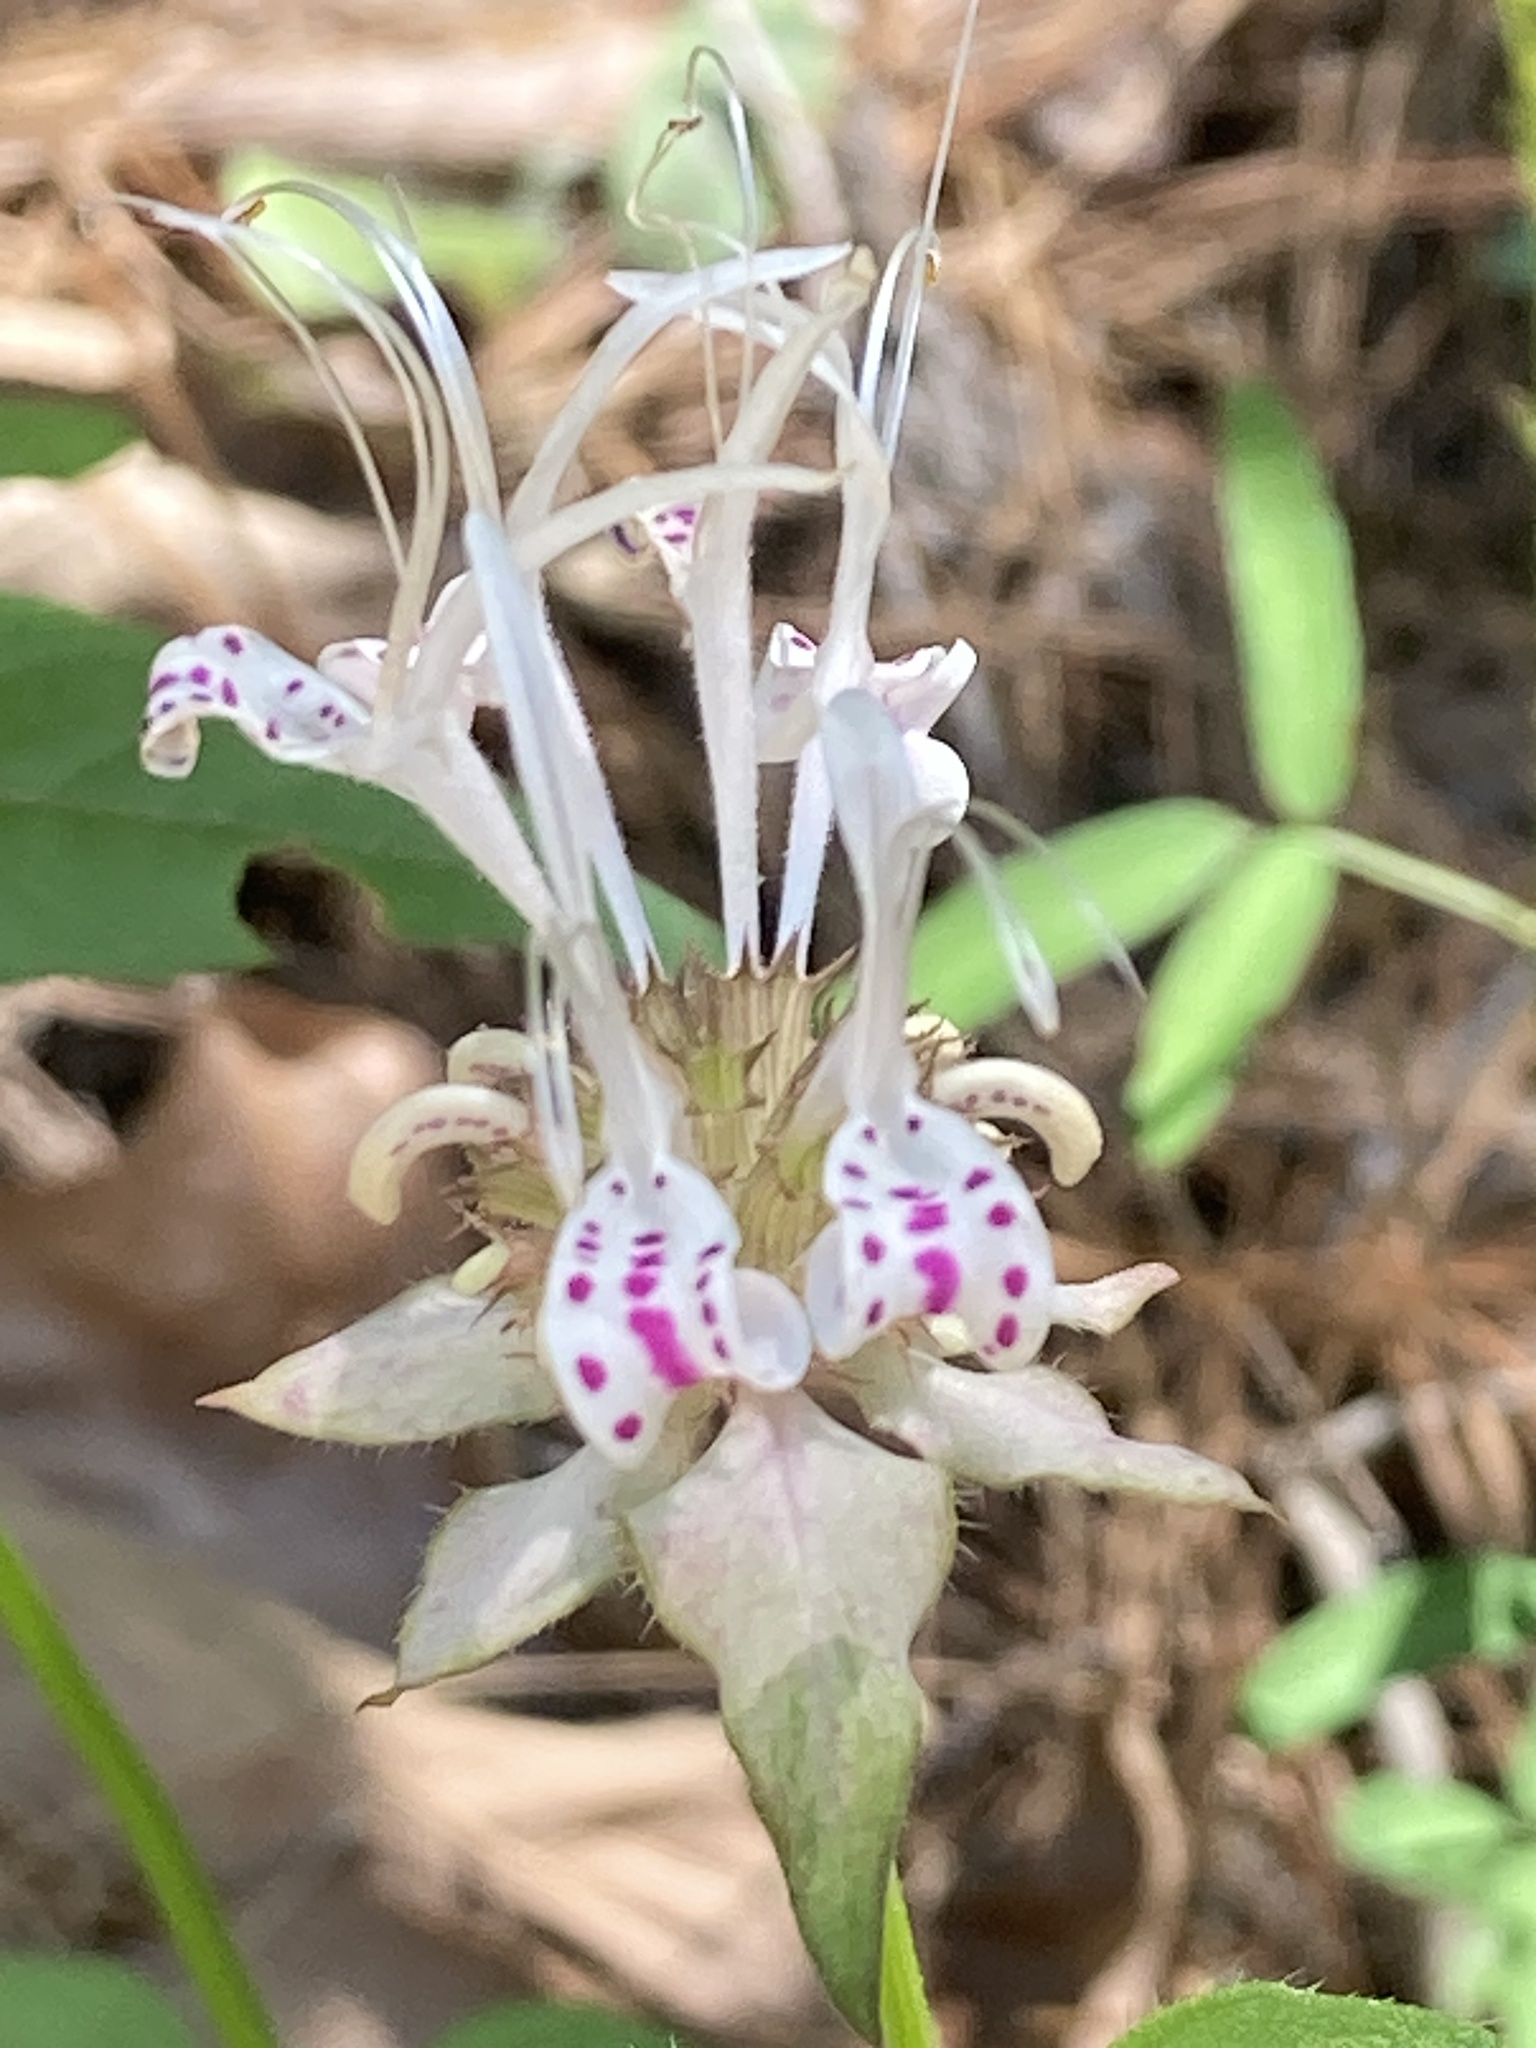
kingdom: Plantae
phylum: Tracheophyta
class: Magnoliopsida
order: Lamiales
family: Lamiaceae
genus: Monarda
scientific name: Monarda russeliana
